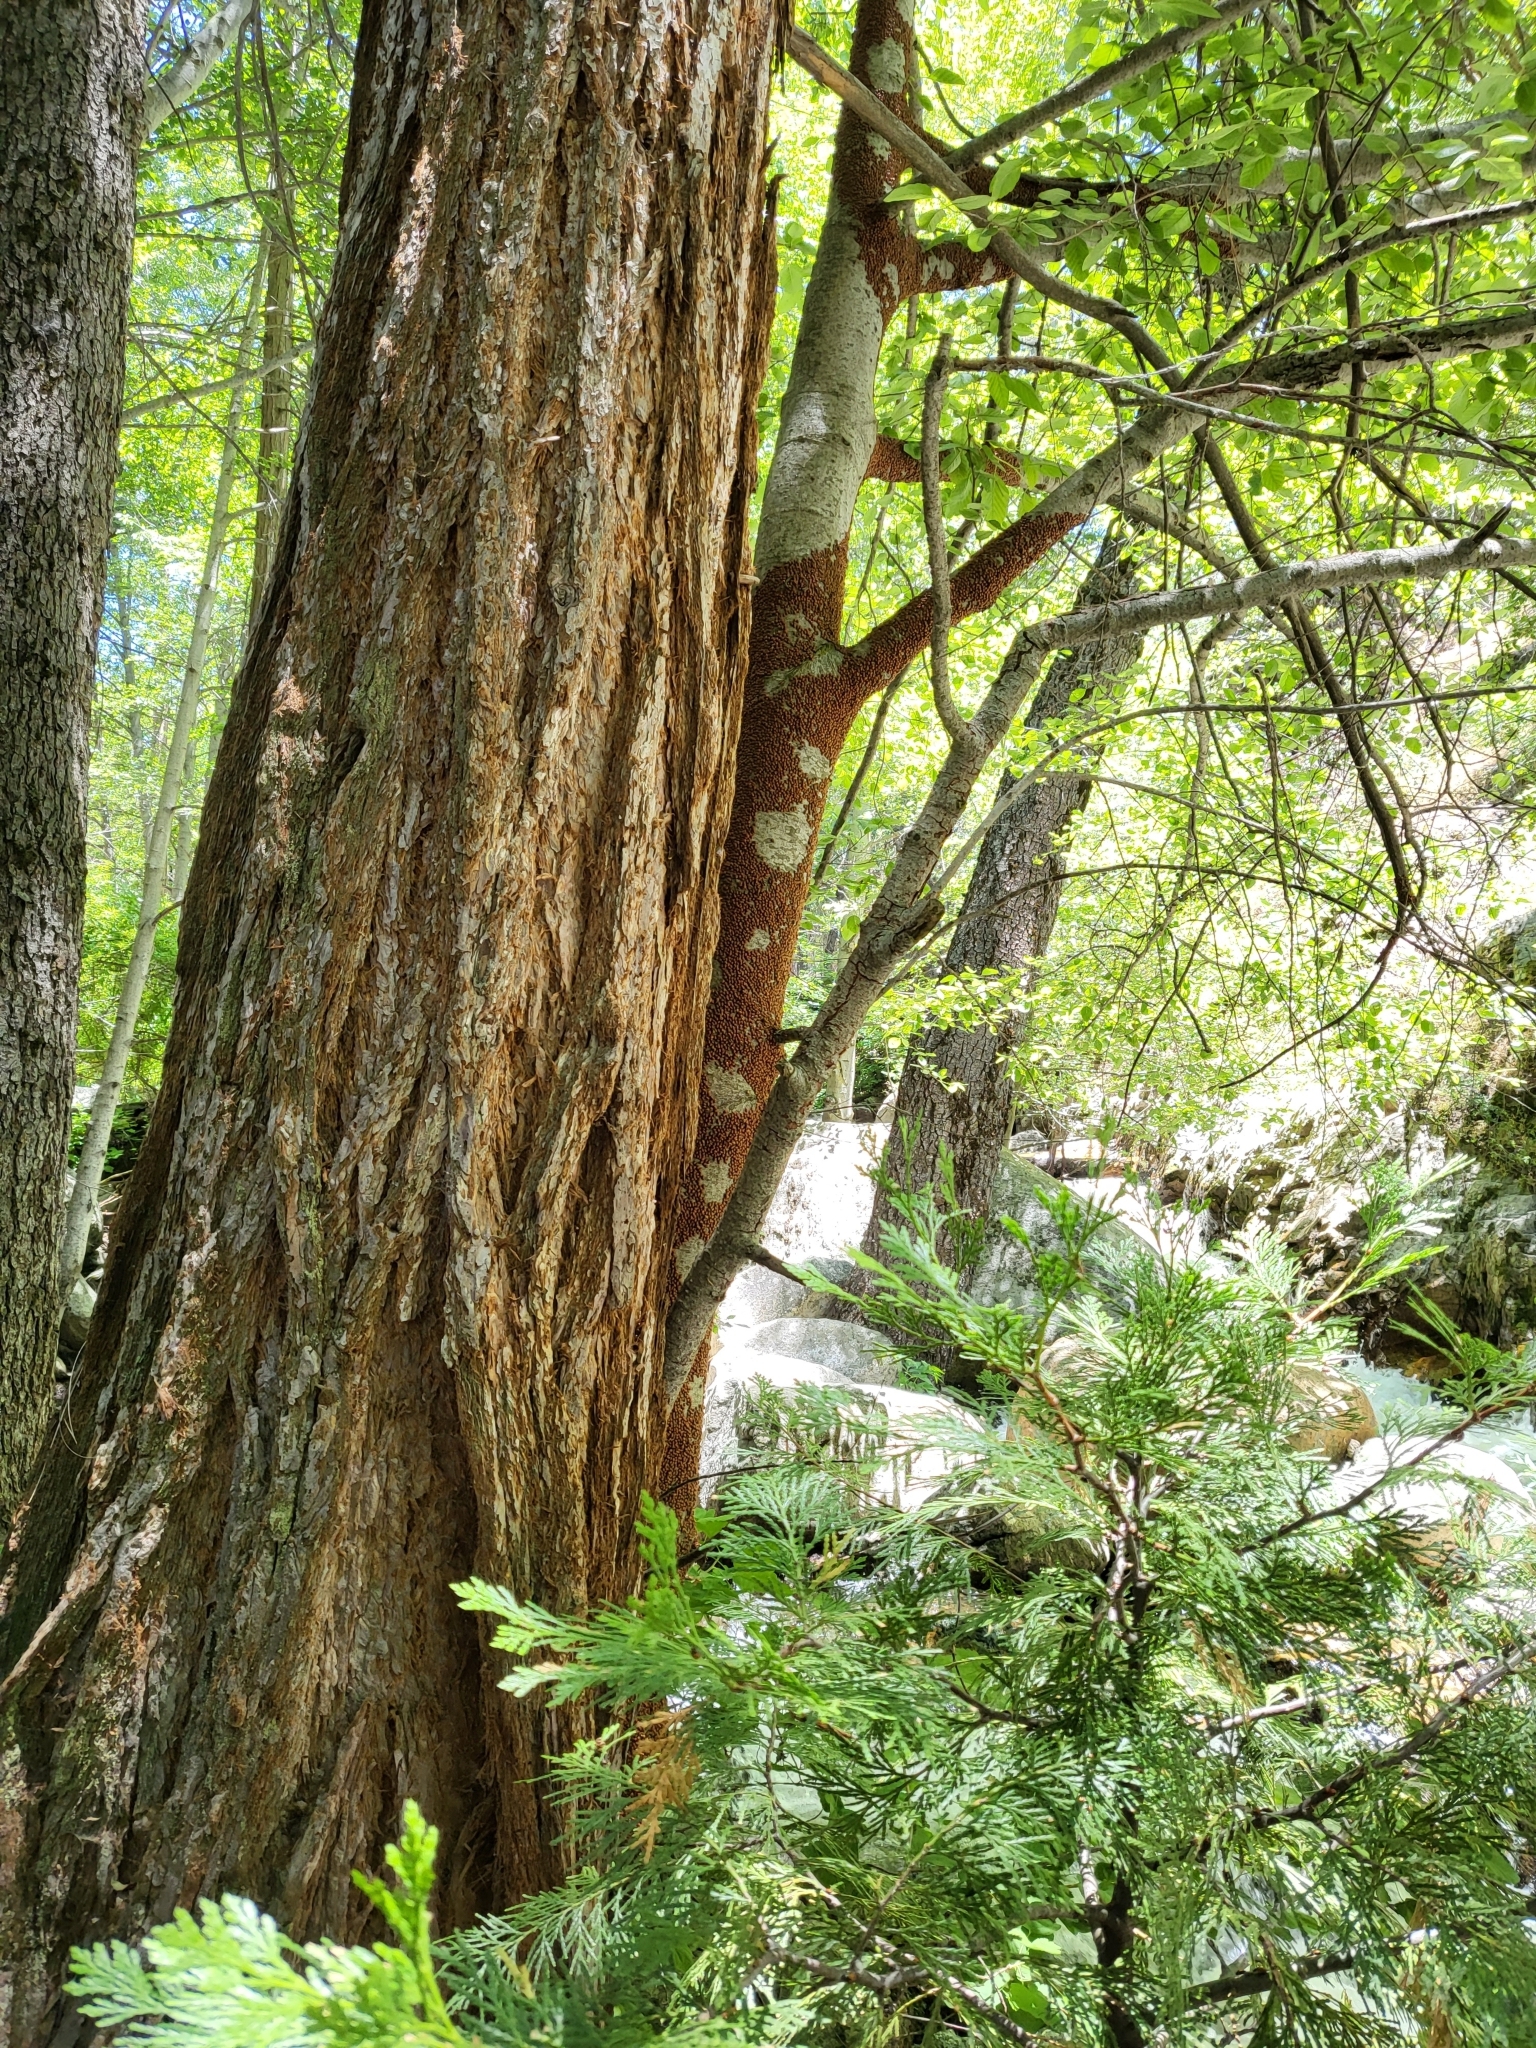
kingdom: Animalia
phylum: Arthropoda
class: Insecta
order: Coleoptera
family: Coccinellidae
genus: Hippodamia
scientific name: Hippodamia convergens
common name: Convergent lady beetle
